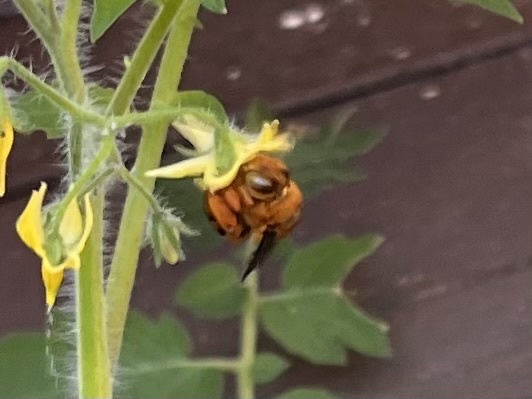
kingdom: Animalia
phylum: Arthropoda
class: Insecta
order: Hymenoptera
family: Apidae
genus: Amegilla
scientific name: Amegilla bombiformis
